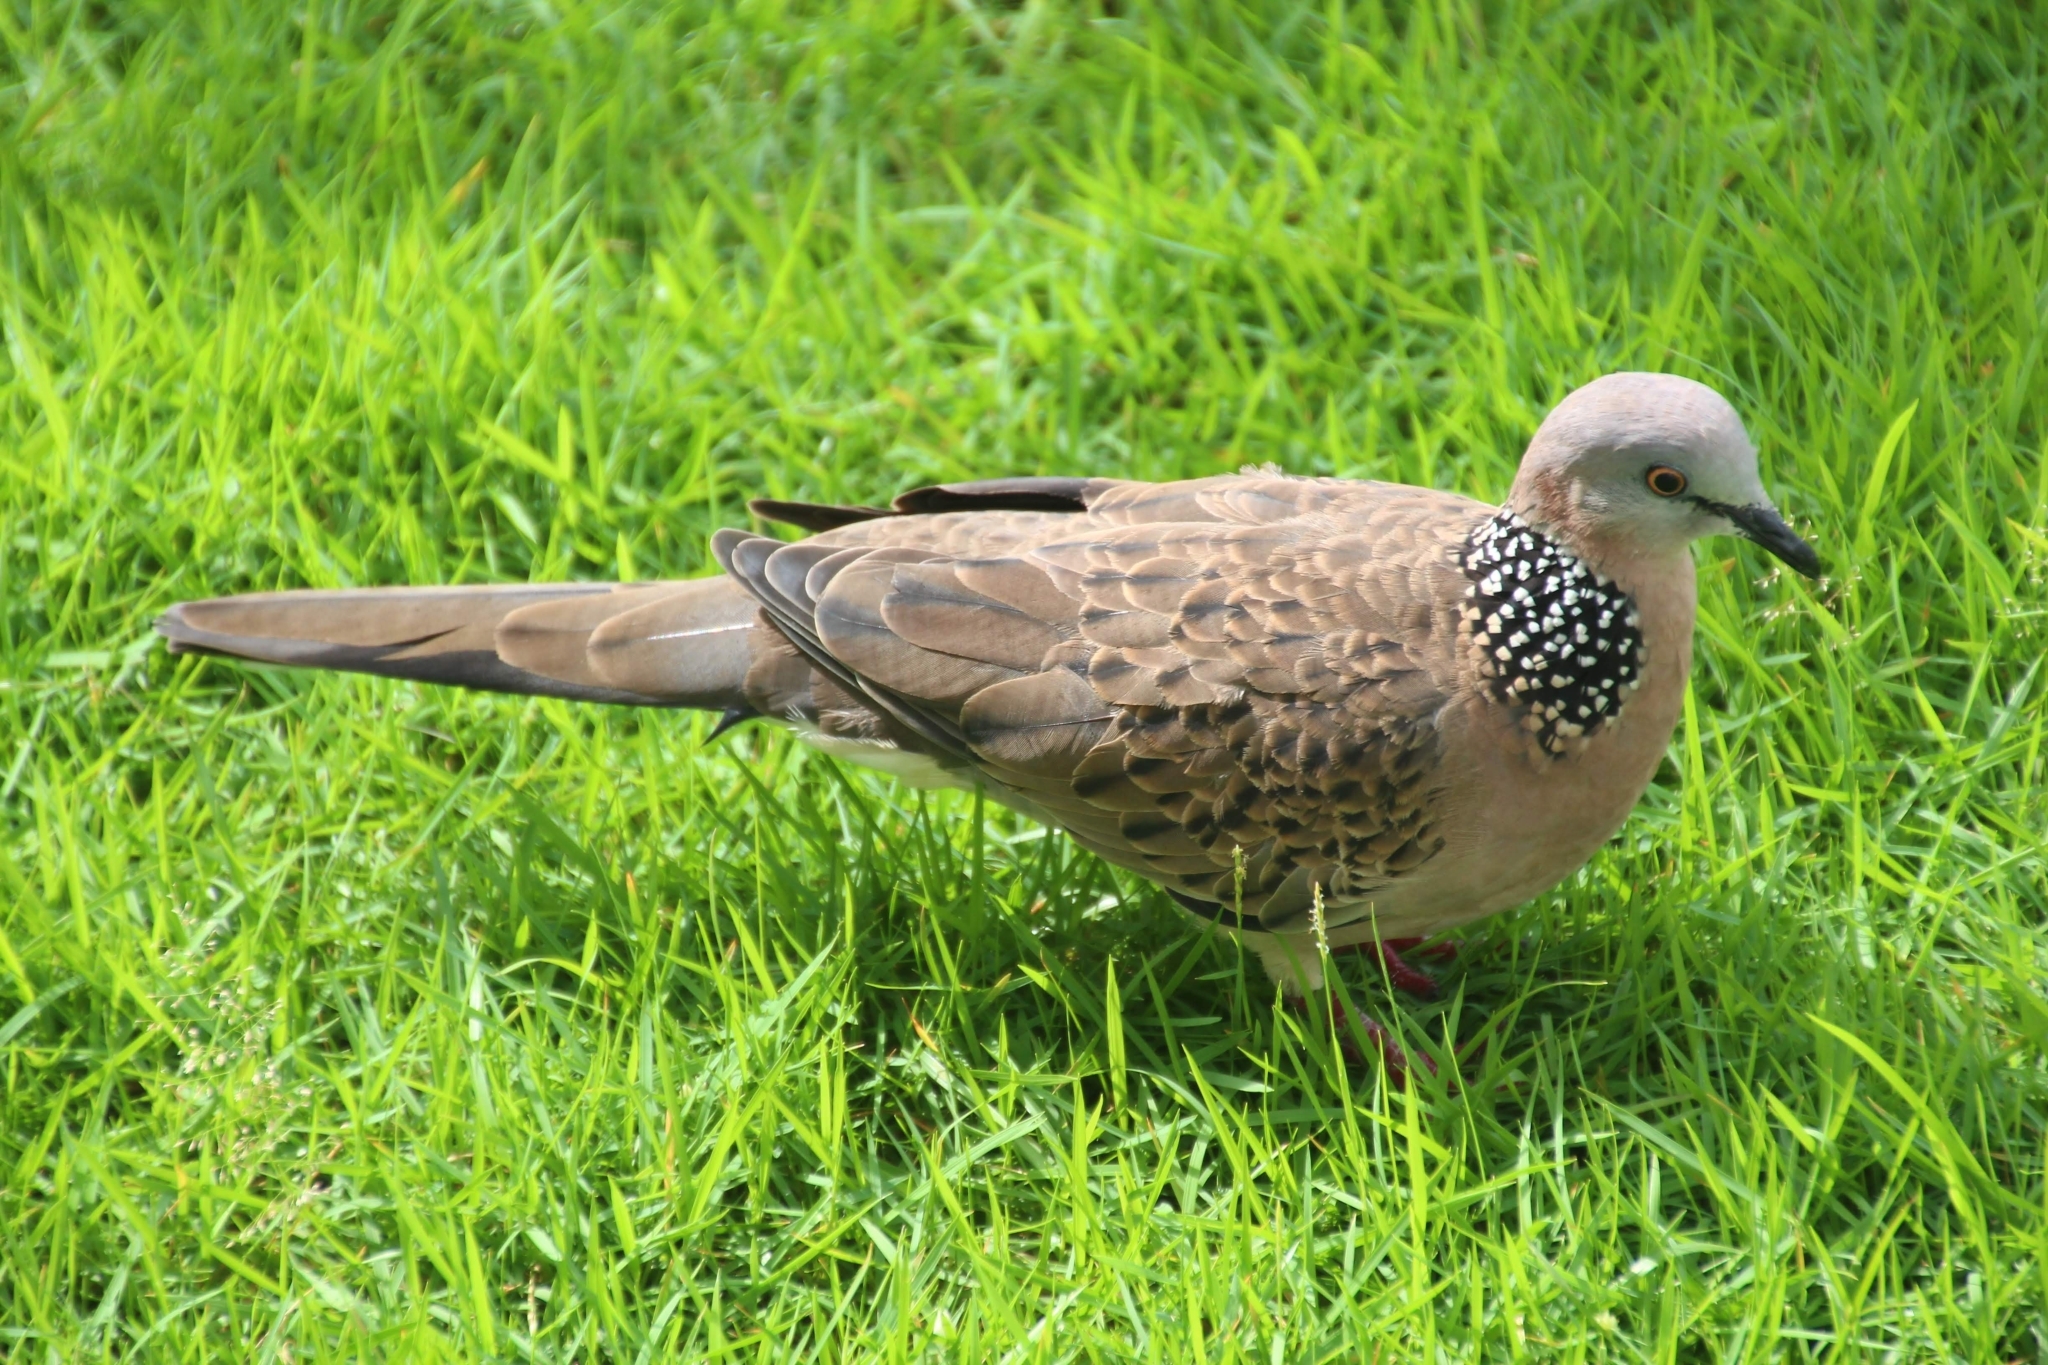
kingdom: Animalia
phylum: Chordata
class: Aves
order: Columbiformes
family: Columbidae
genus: Spilopelia
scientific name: Spilopelia chinensis
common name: Spotted dove
